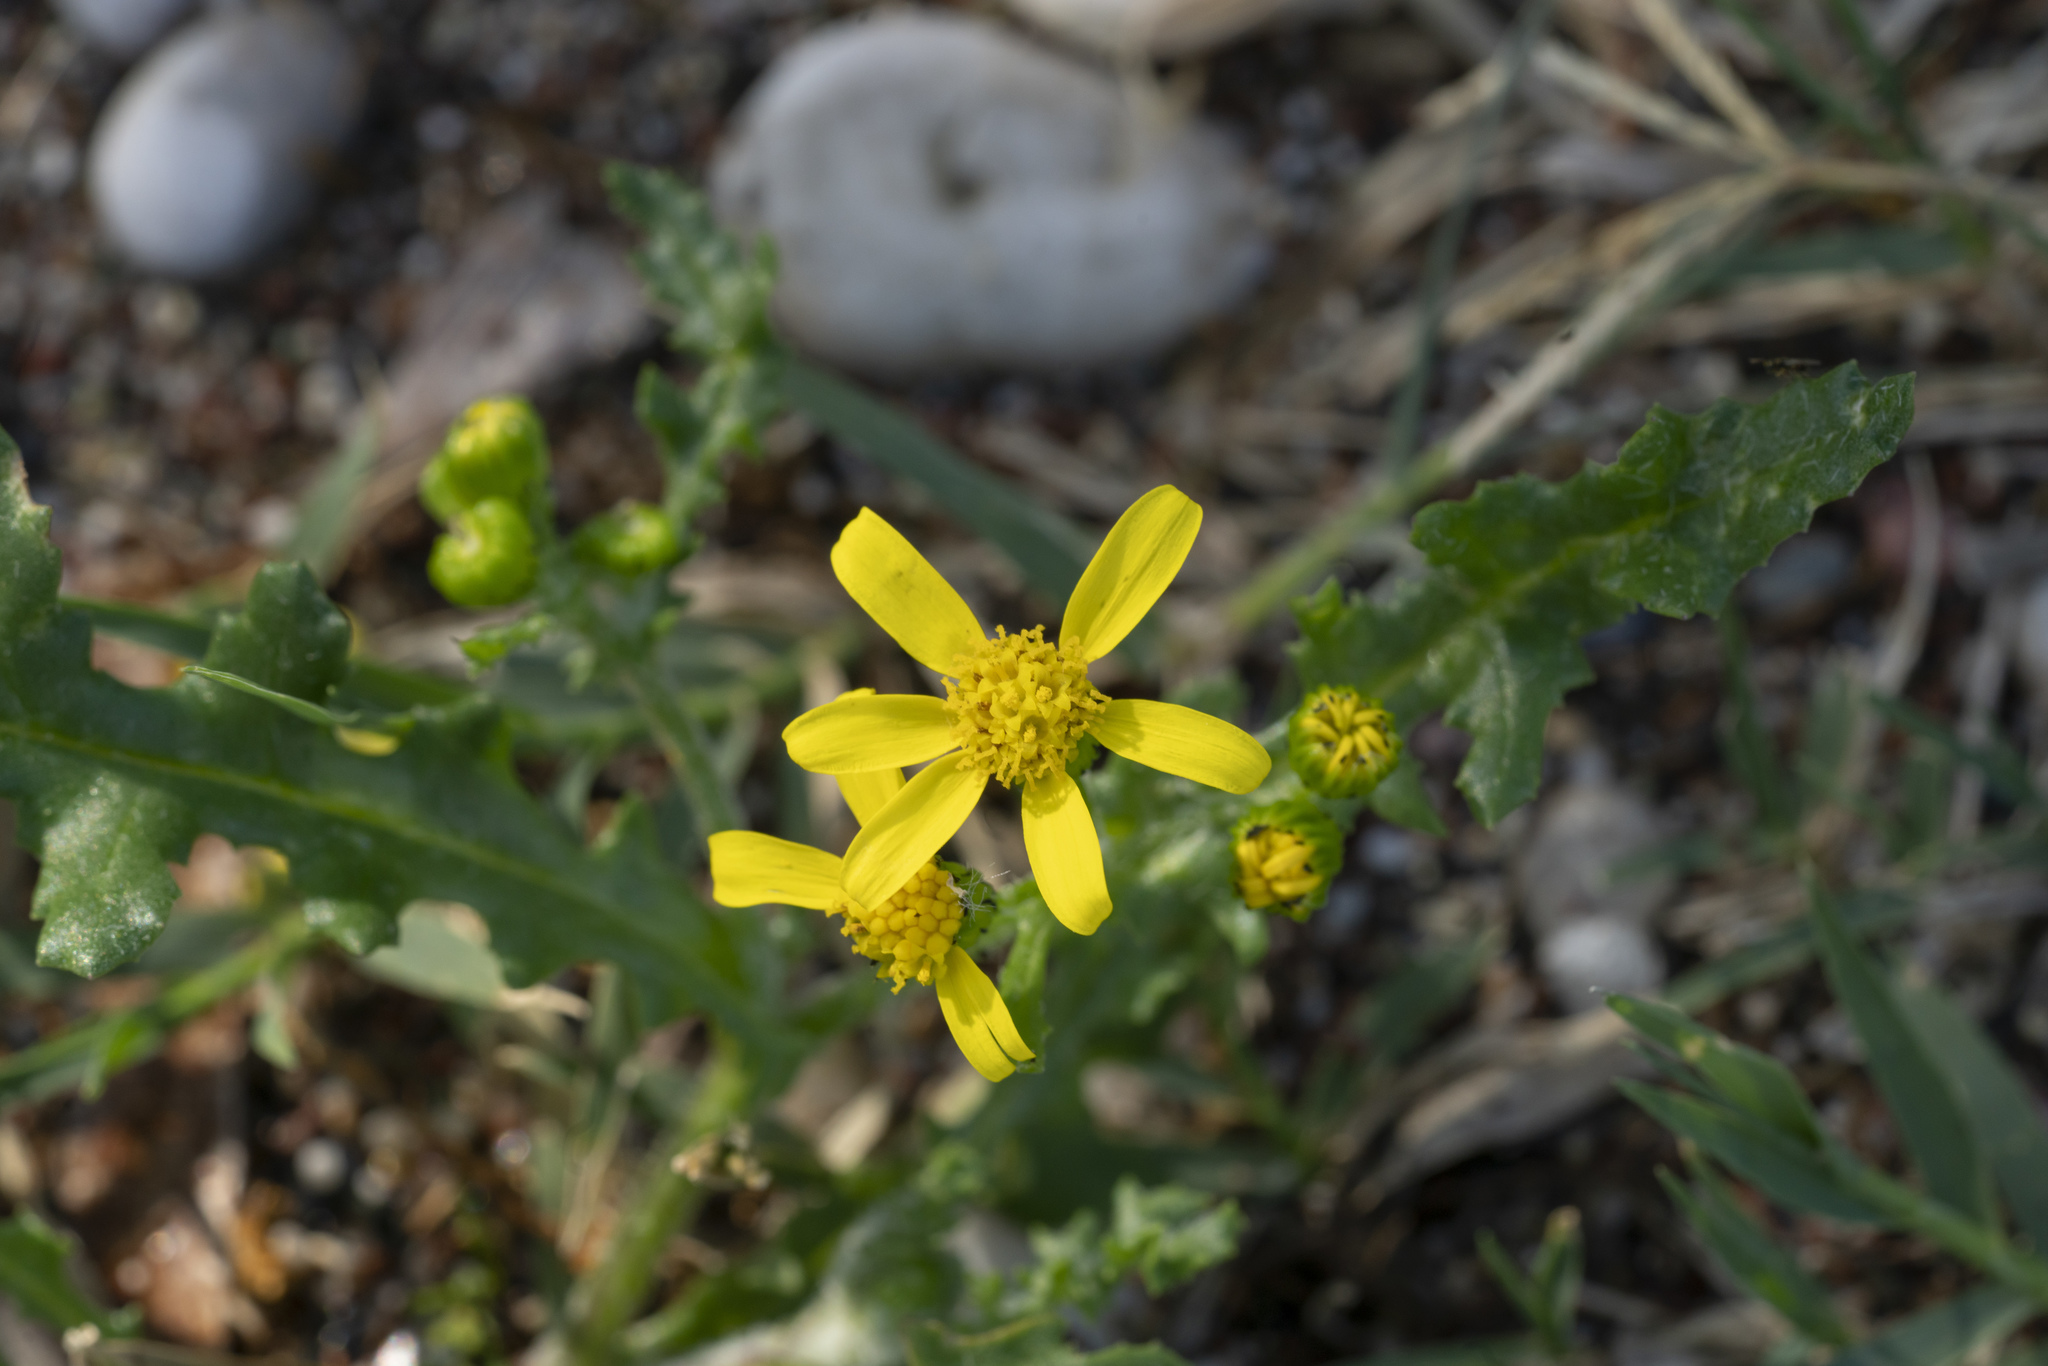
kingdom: Plantae
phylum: Tracheophyta
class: Magnoliopsida
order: Asterales
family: Asteraceae
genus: Senecio
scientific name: Senecio vernalis
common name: Eastern groundsel
